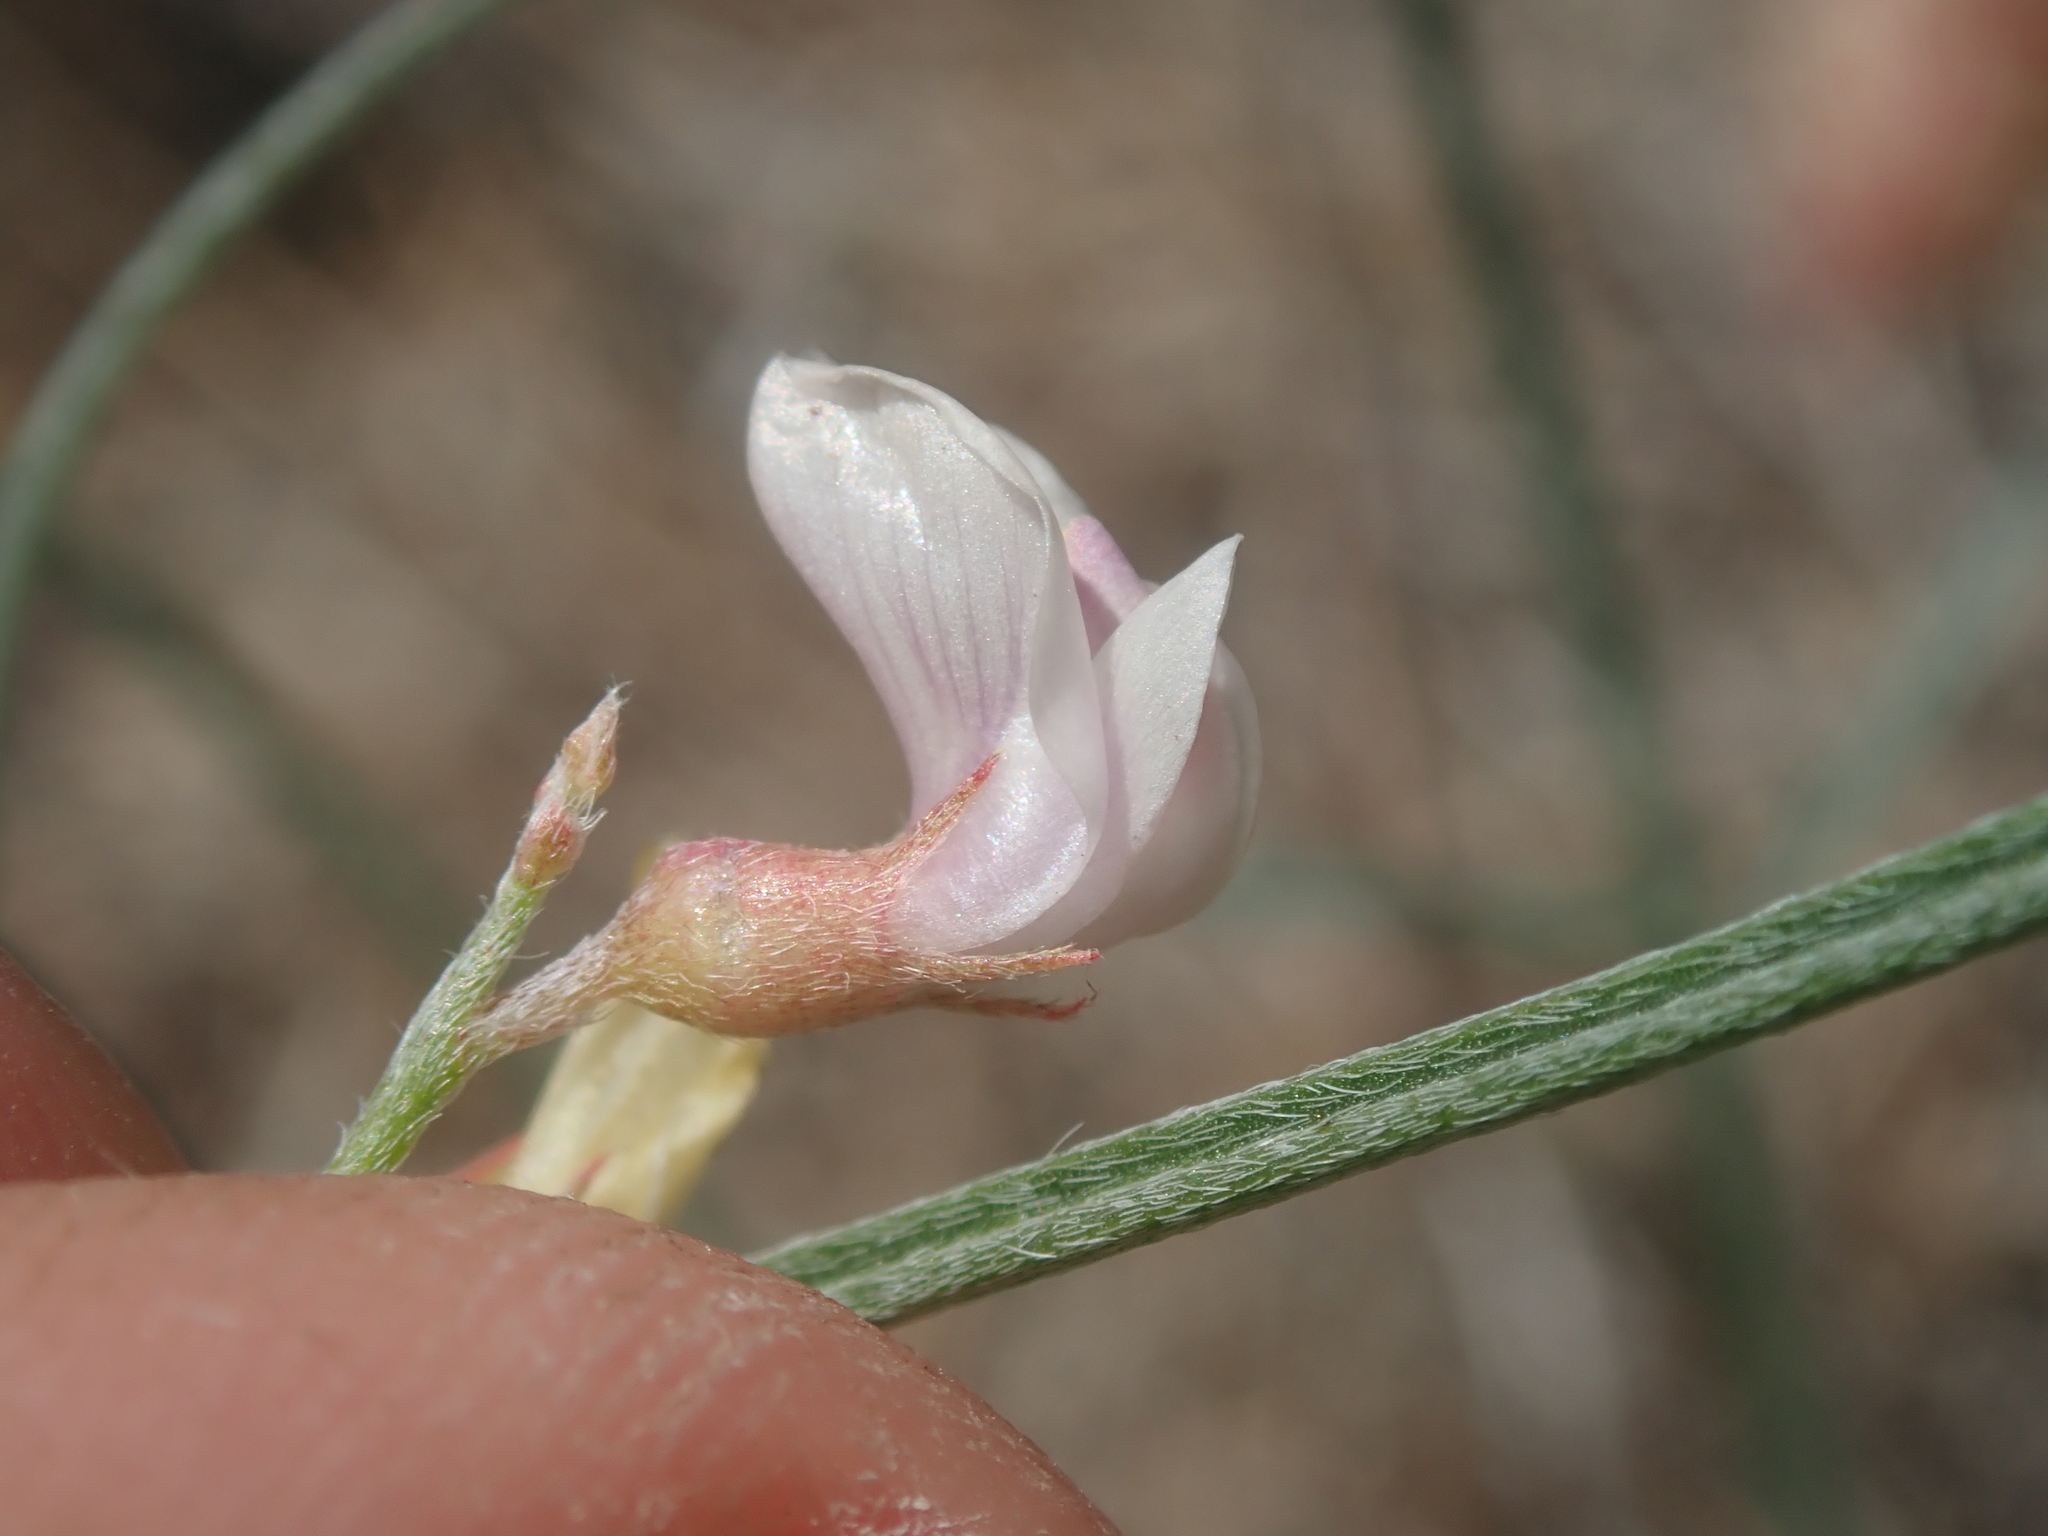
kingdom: Plantae
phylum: Tracheophyta
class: Magnoliopsida
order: Fabales
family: Fabaceae
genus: Astragalus
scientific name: Astragalus ceramicus
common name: Painted milk-vetch
